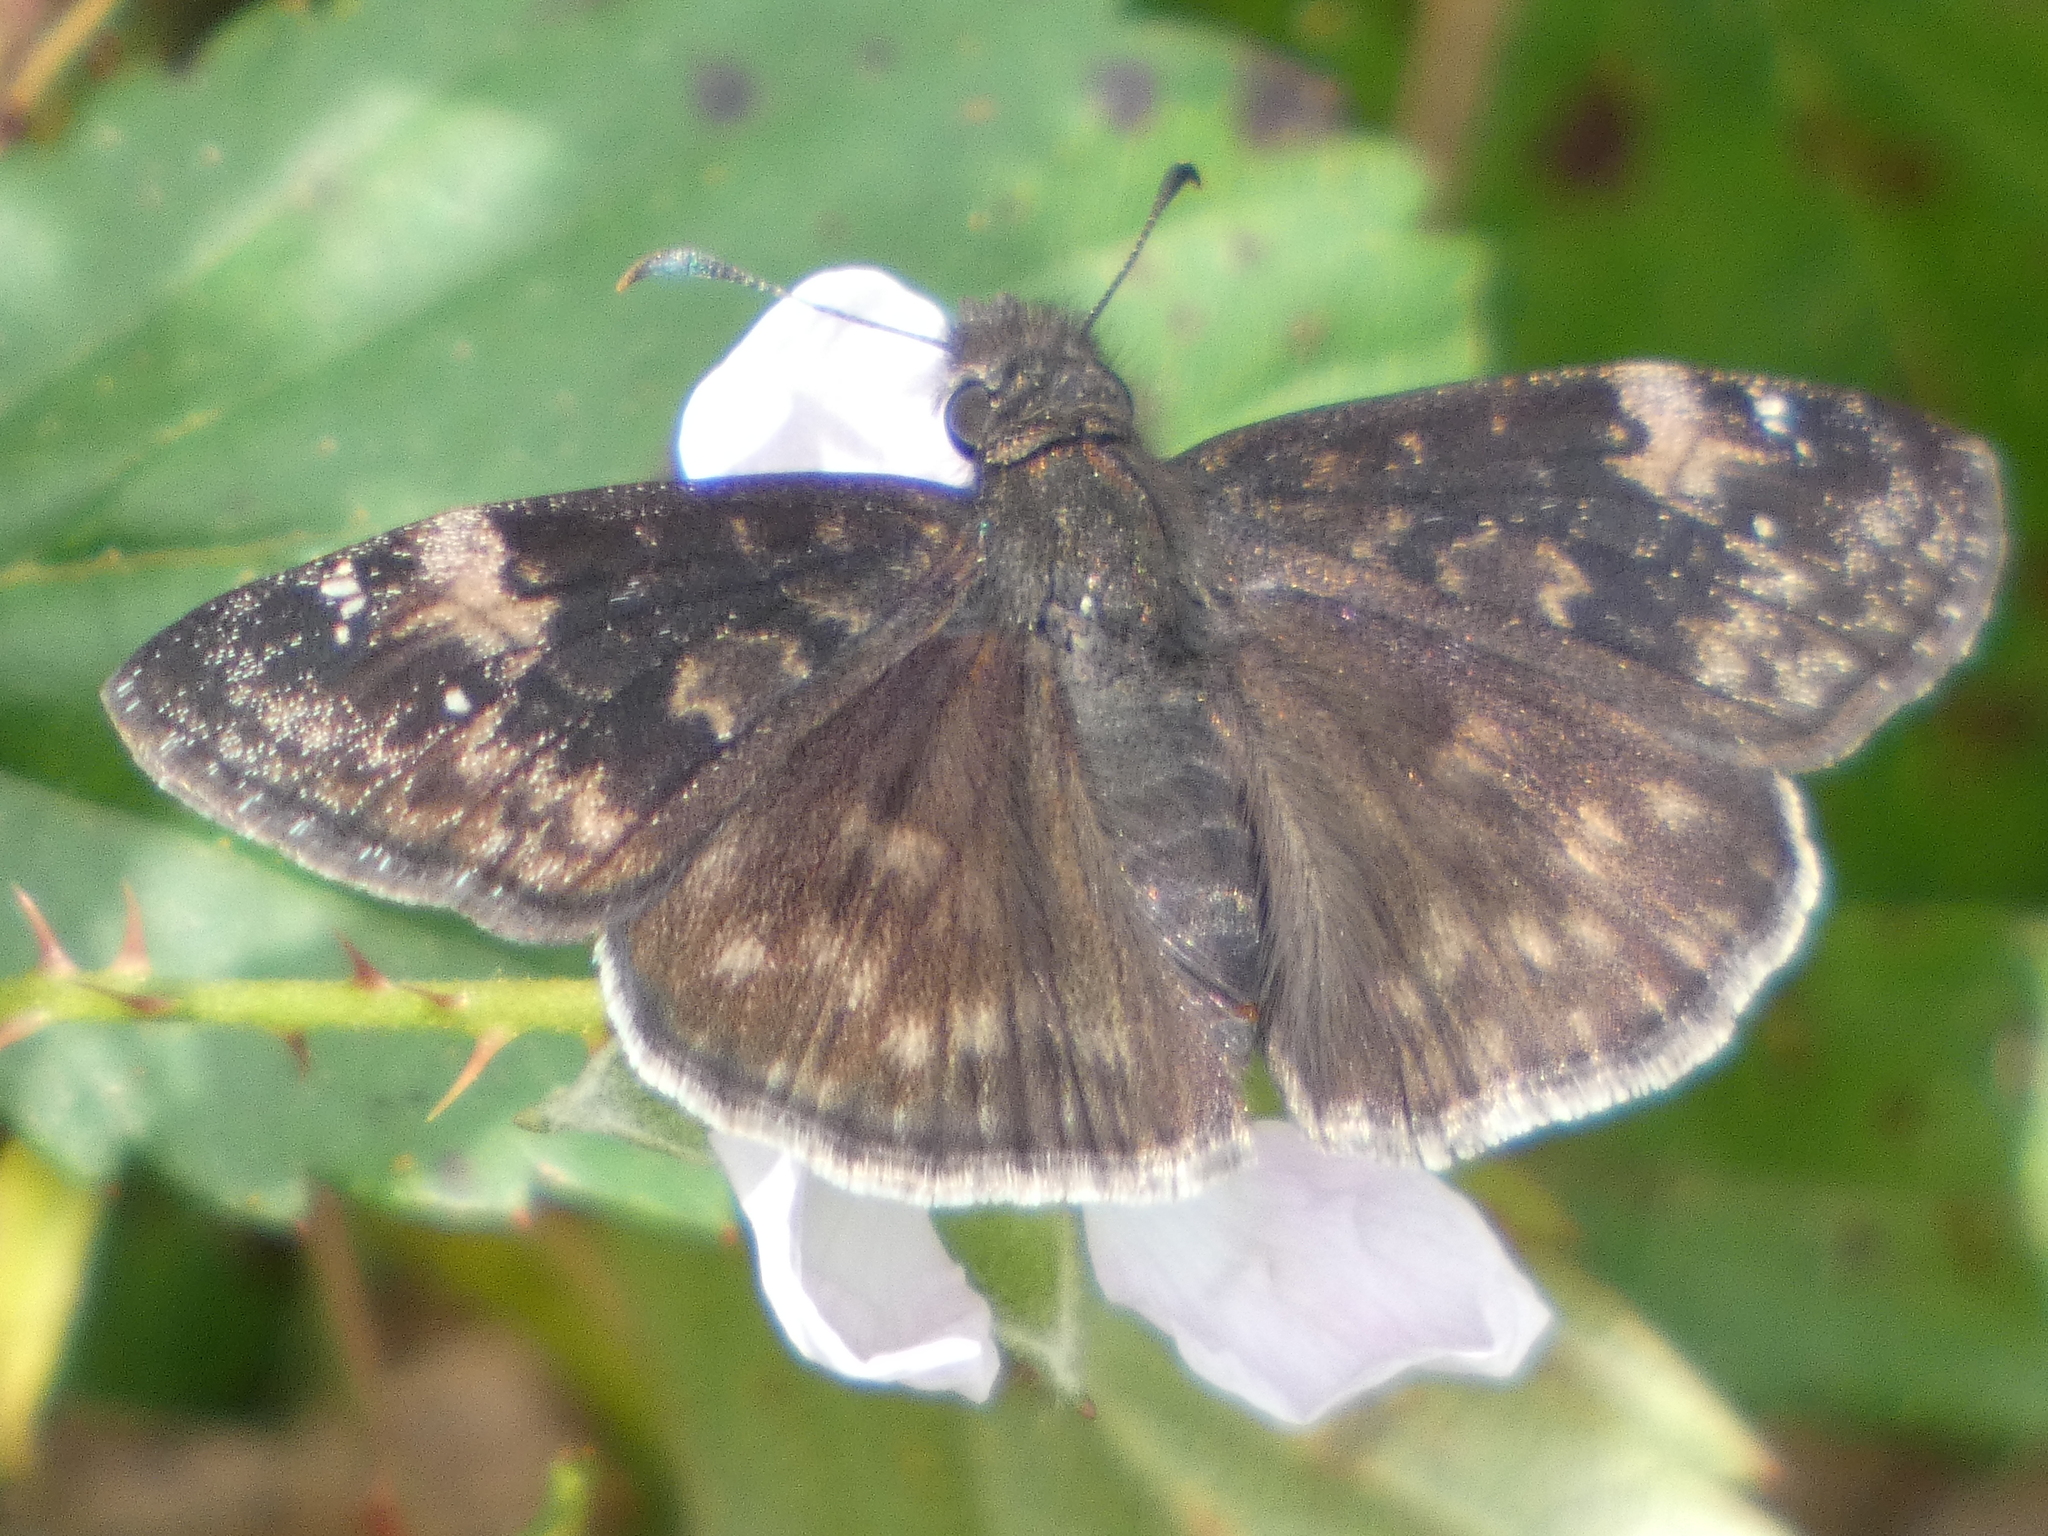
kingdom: Animalia
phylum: Arthropoda
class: Insecta
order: Lepidoptera
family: Hesperiidae
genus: Erynnis
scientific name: Erynnis zarucco
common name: Zarucco duskywing
